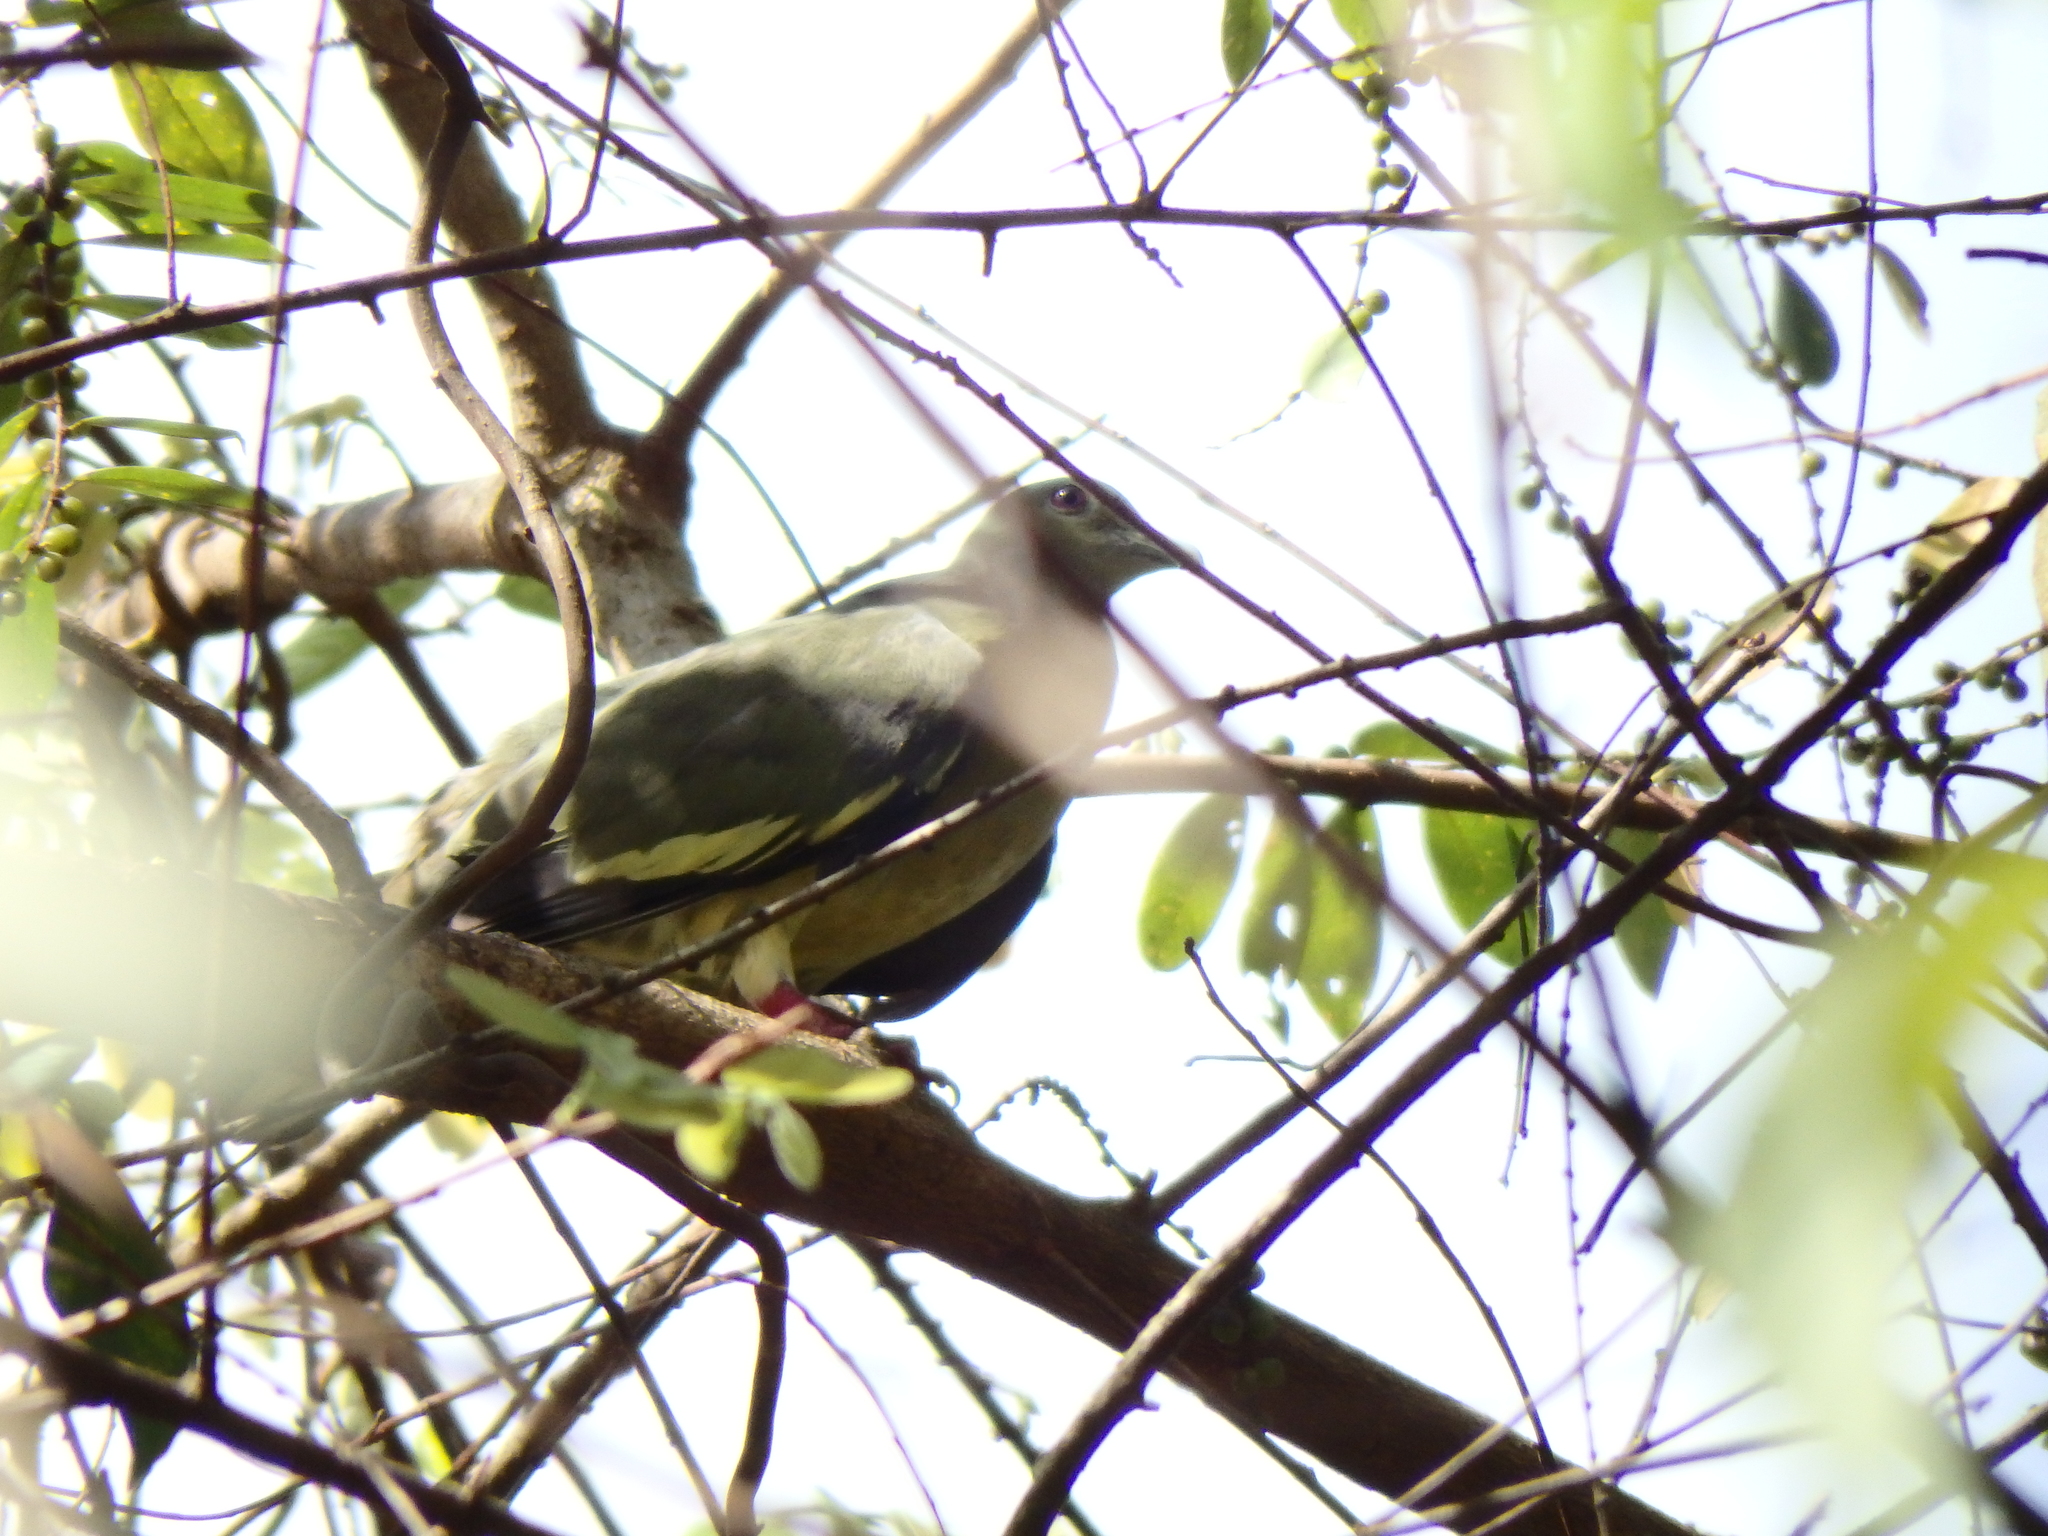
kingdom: Animalia
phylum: Chordata
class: Aves
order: Columbiformes
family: Columbidae
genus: Treron
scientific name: Treron vernans
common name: Pink-necked green pigeon
